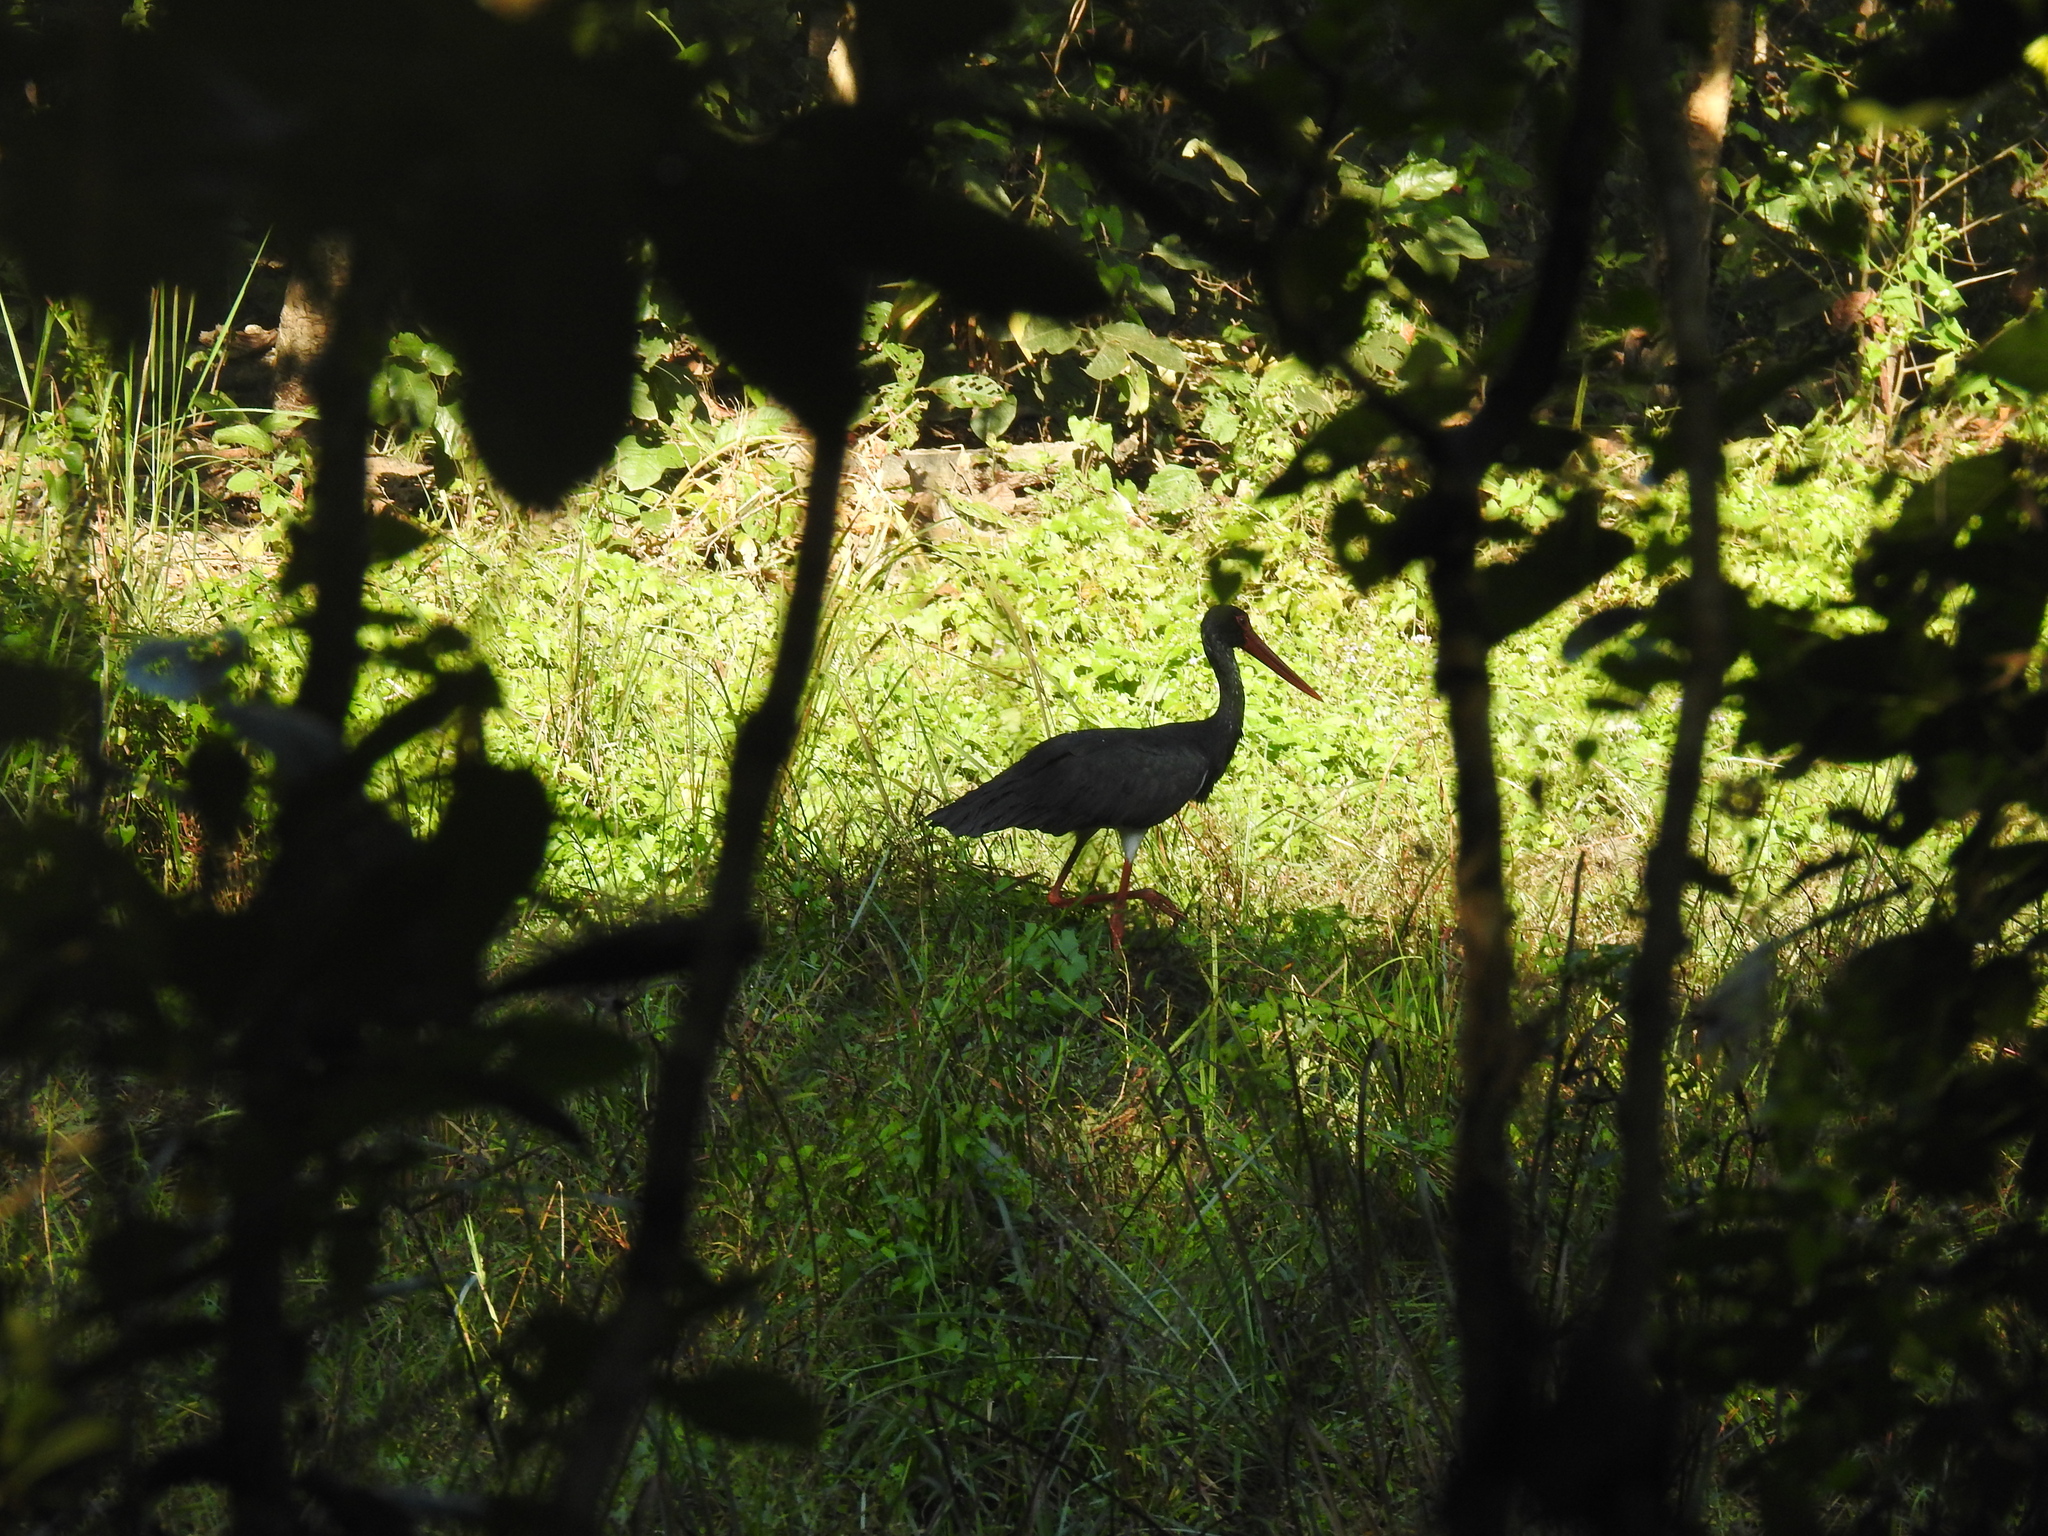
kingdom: Animalia
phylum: Chordata
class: Aves
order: Ciconiiformes
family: Ciconiidae
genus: Ciconia
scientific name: Ciconia nigra
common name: Black stork
